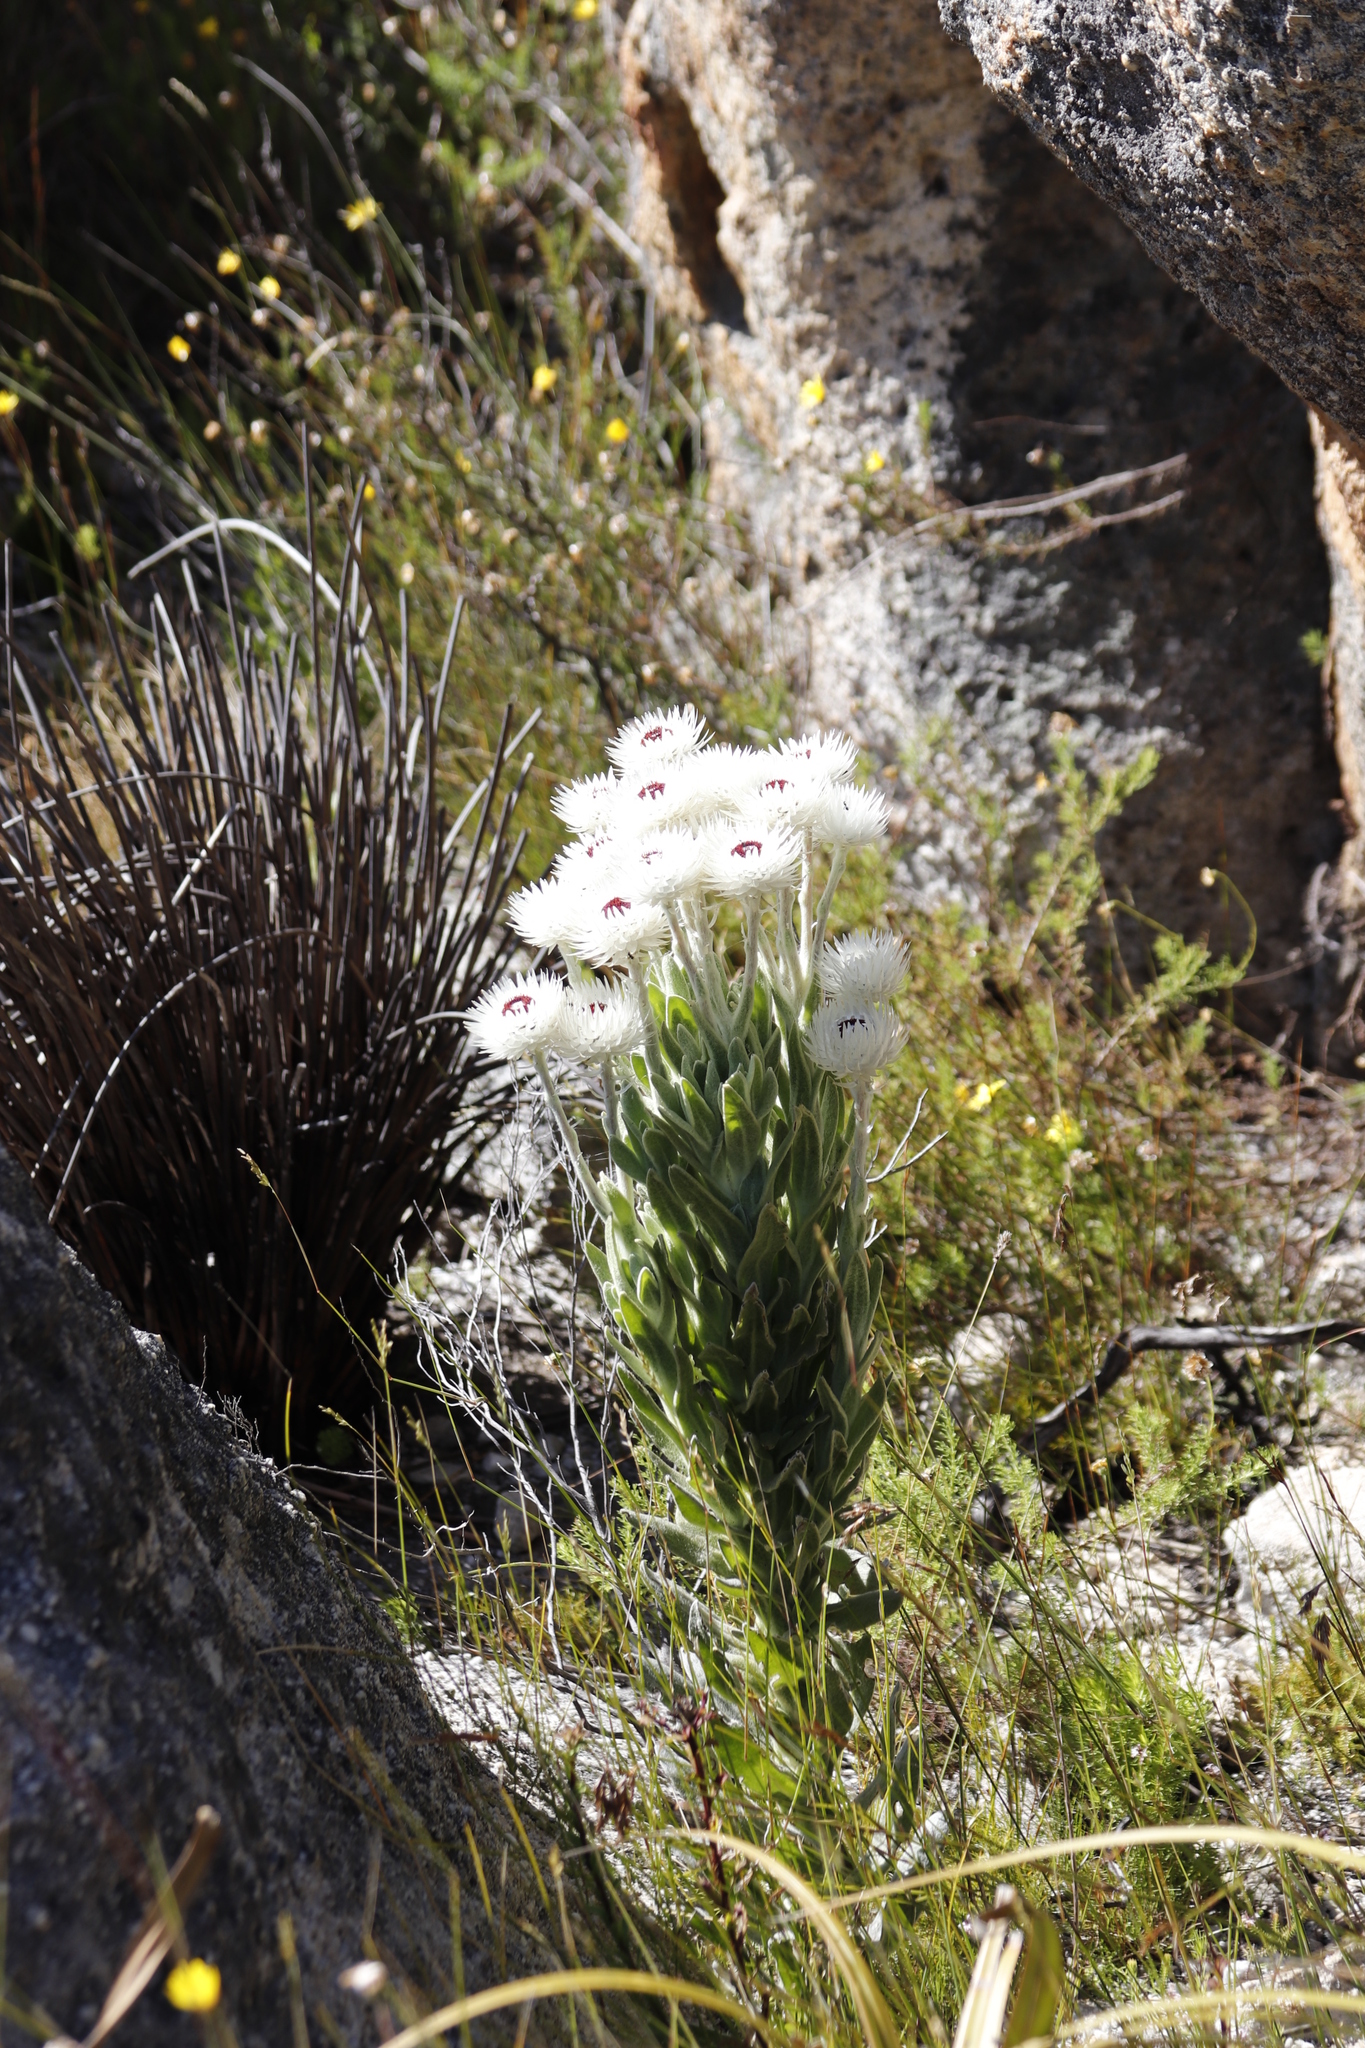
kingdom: Plantae
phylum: Tracheophyta
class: Magnoliopsida
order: Asterales
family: Asteraceae
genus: Syncarpha
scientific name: Syncarpha vestita
